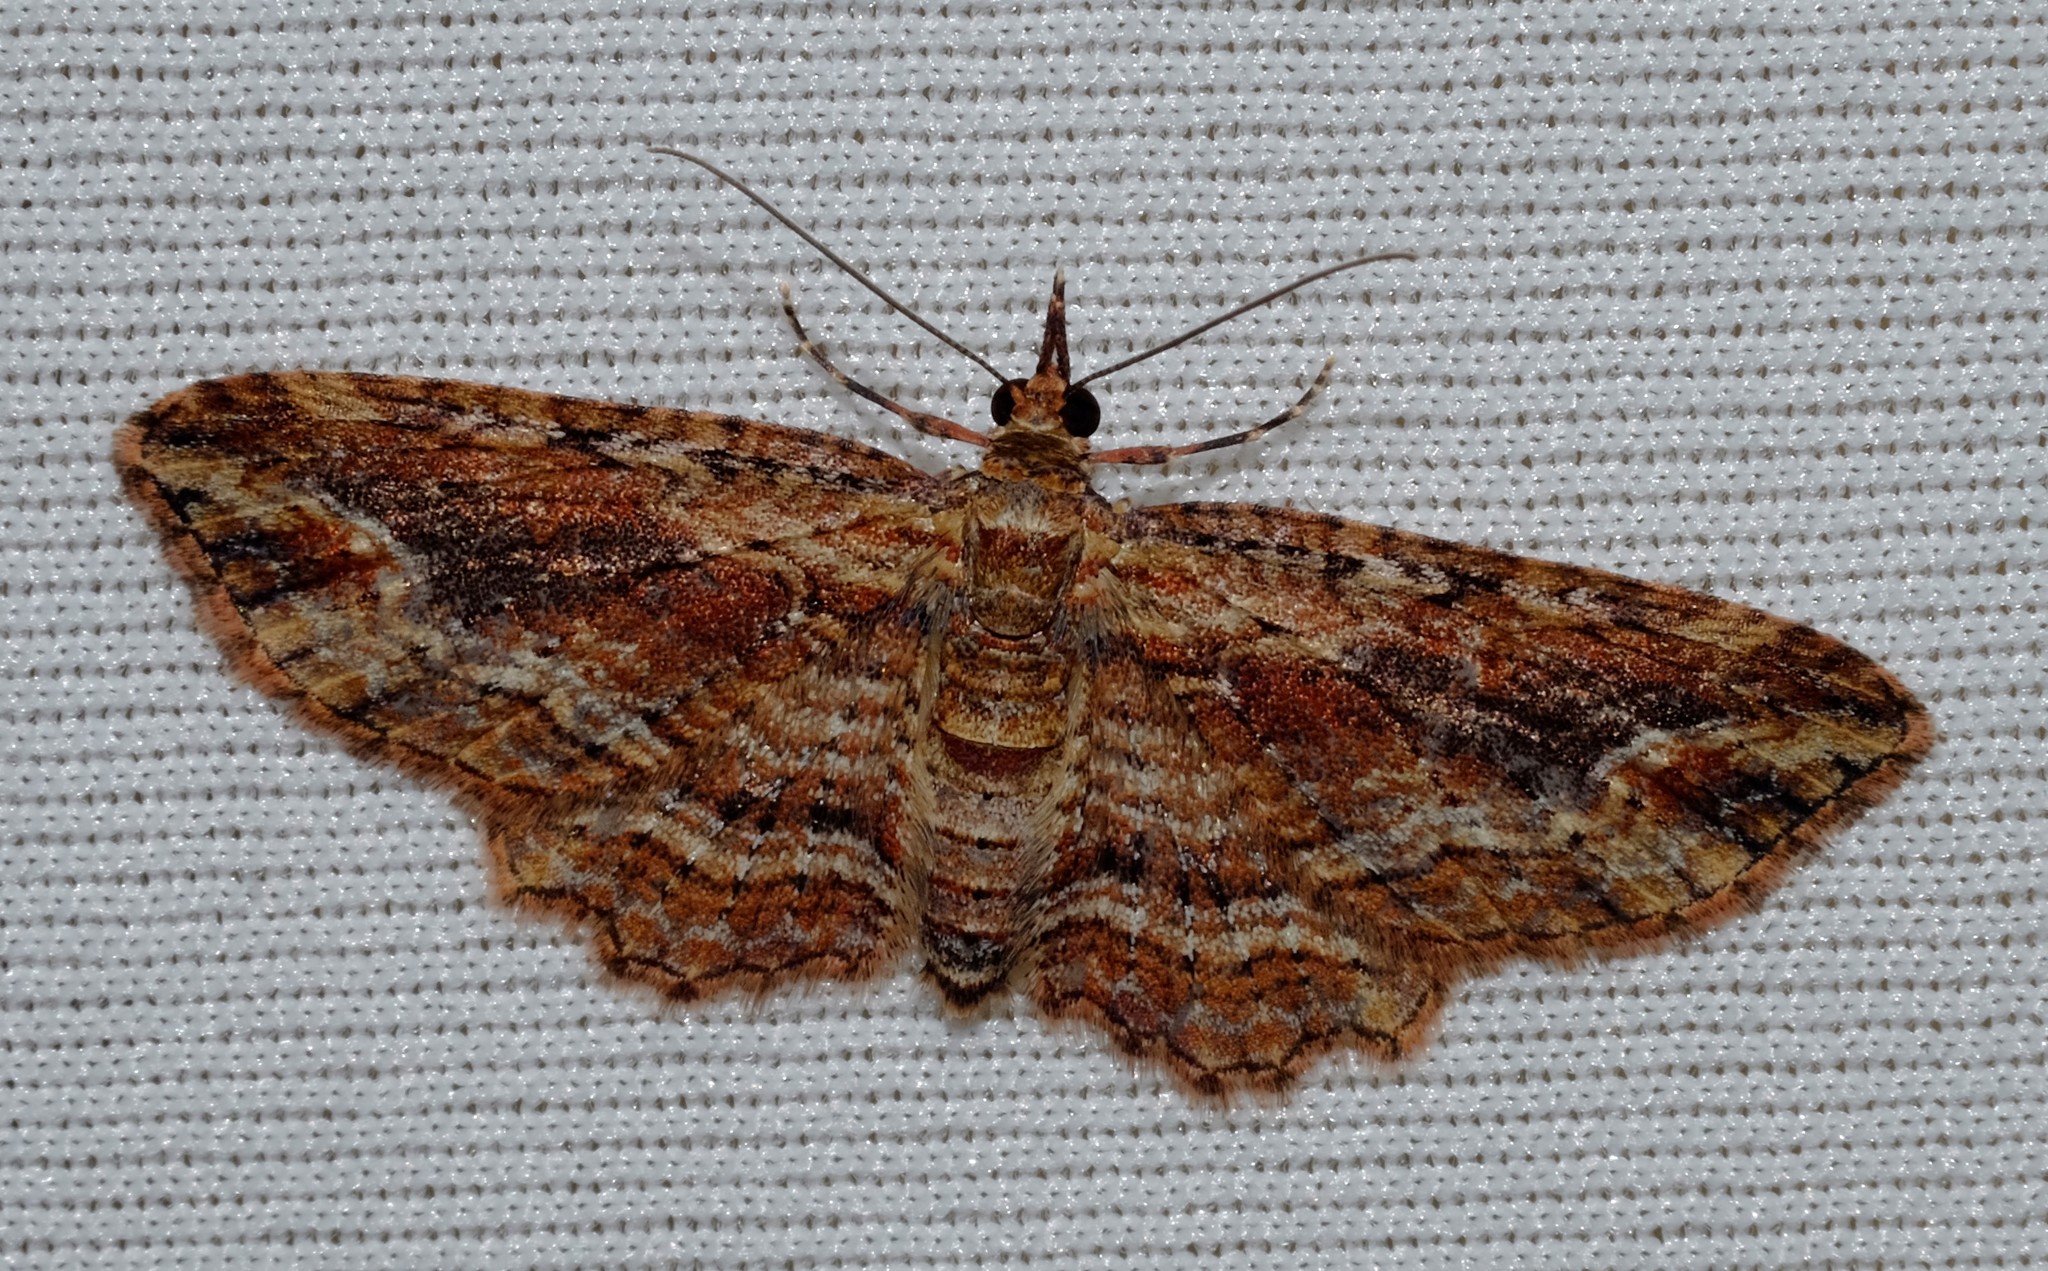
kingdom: Animalia
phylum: Arthropoda
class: Insecta
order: Lepidoptera
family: Geometridae
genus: Chloroclystis
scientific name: Chloroclystis filata
